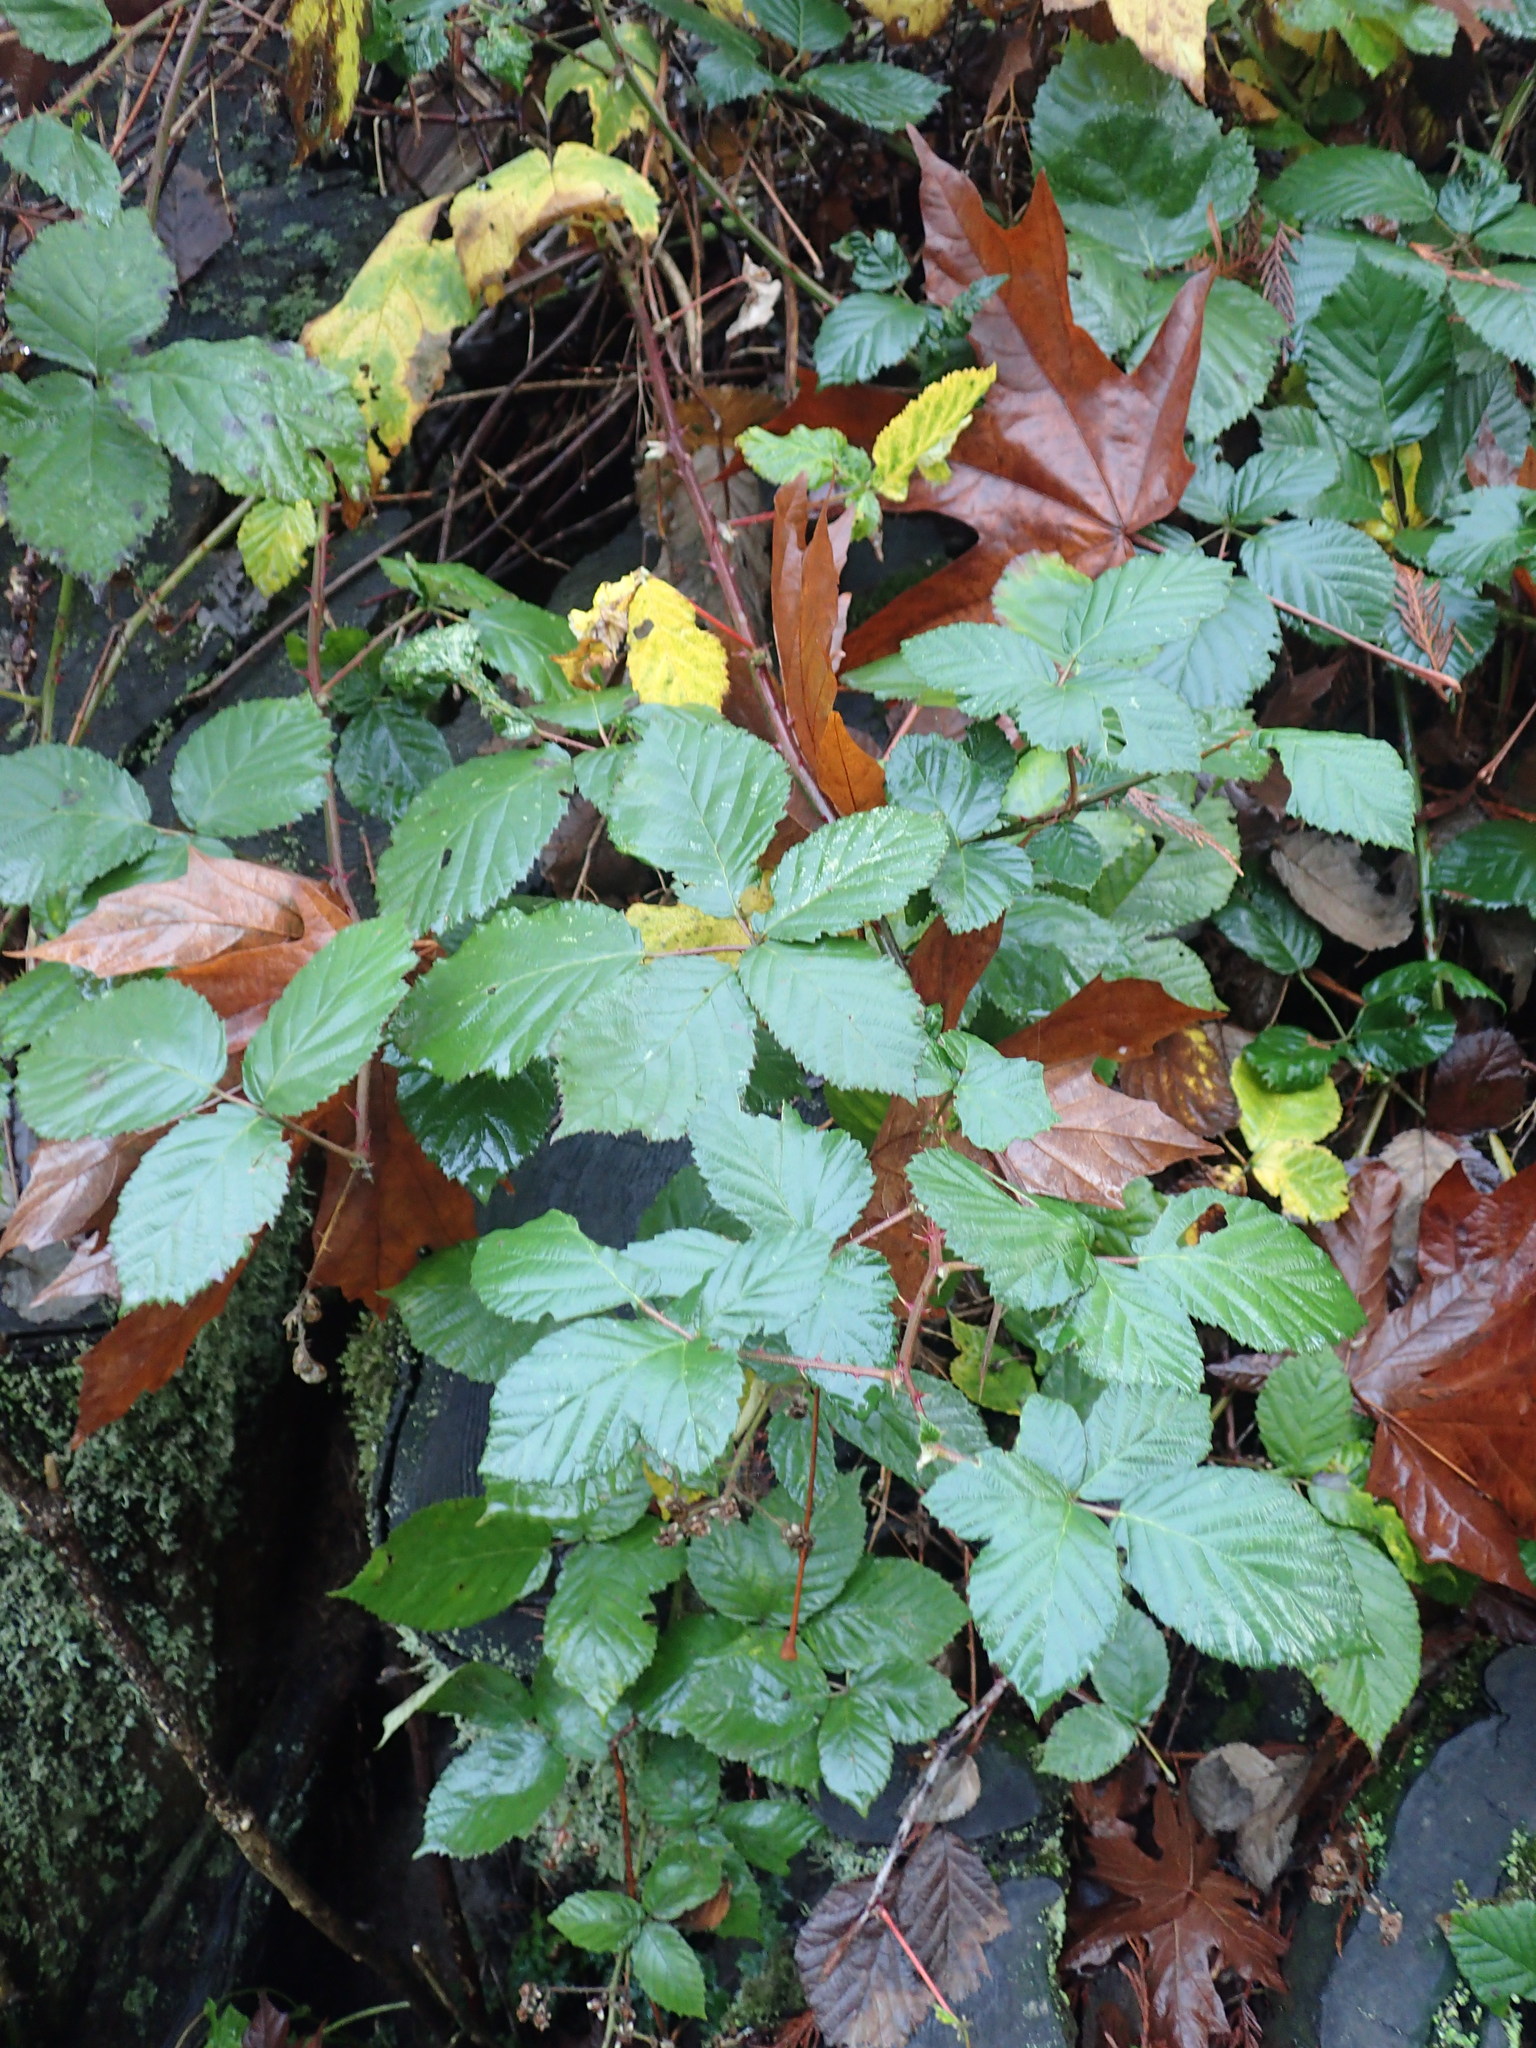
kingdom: Plantae
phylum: Tracheophyta
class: Magnoliopsida
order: Rosales
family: Rosaceae
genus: Rubus
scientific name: Rubus armeniacus
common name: Himalayan blackberry
